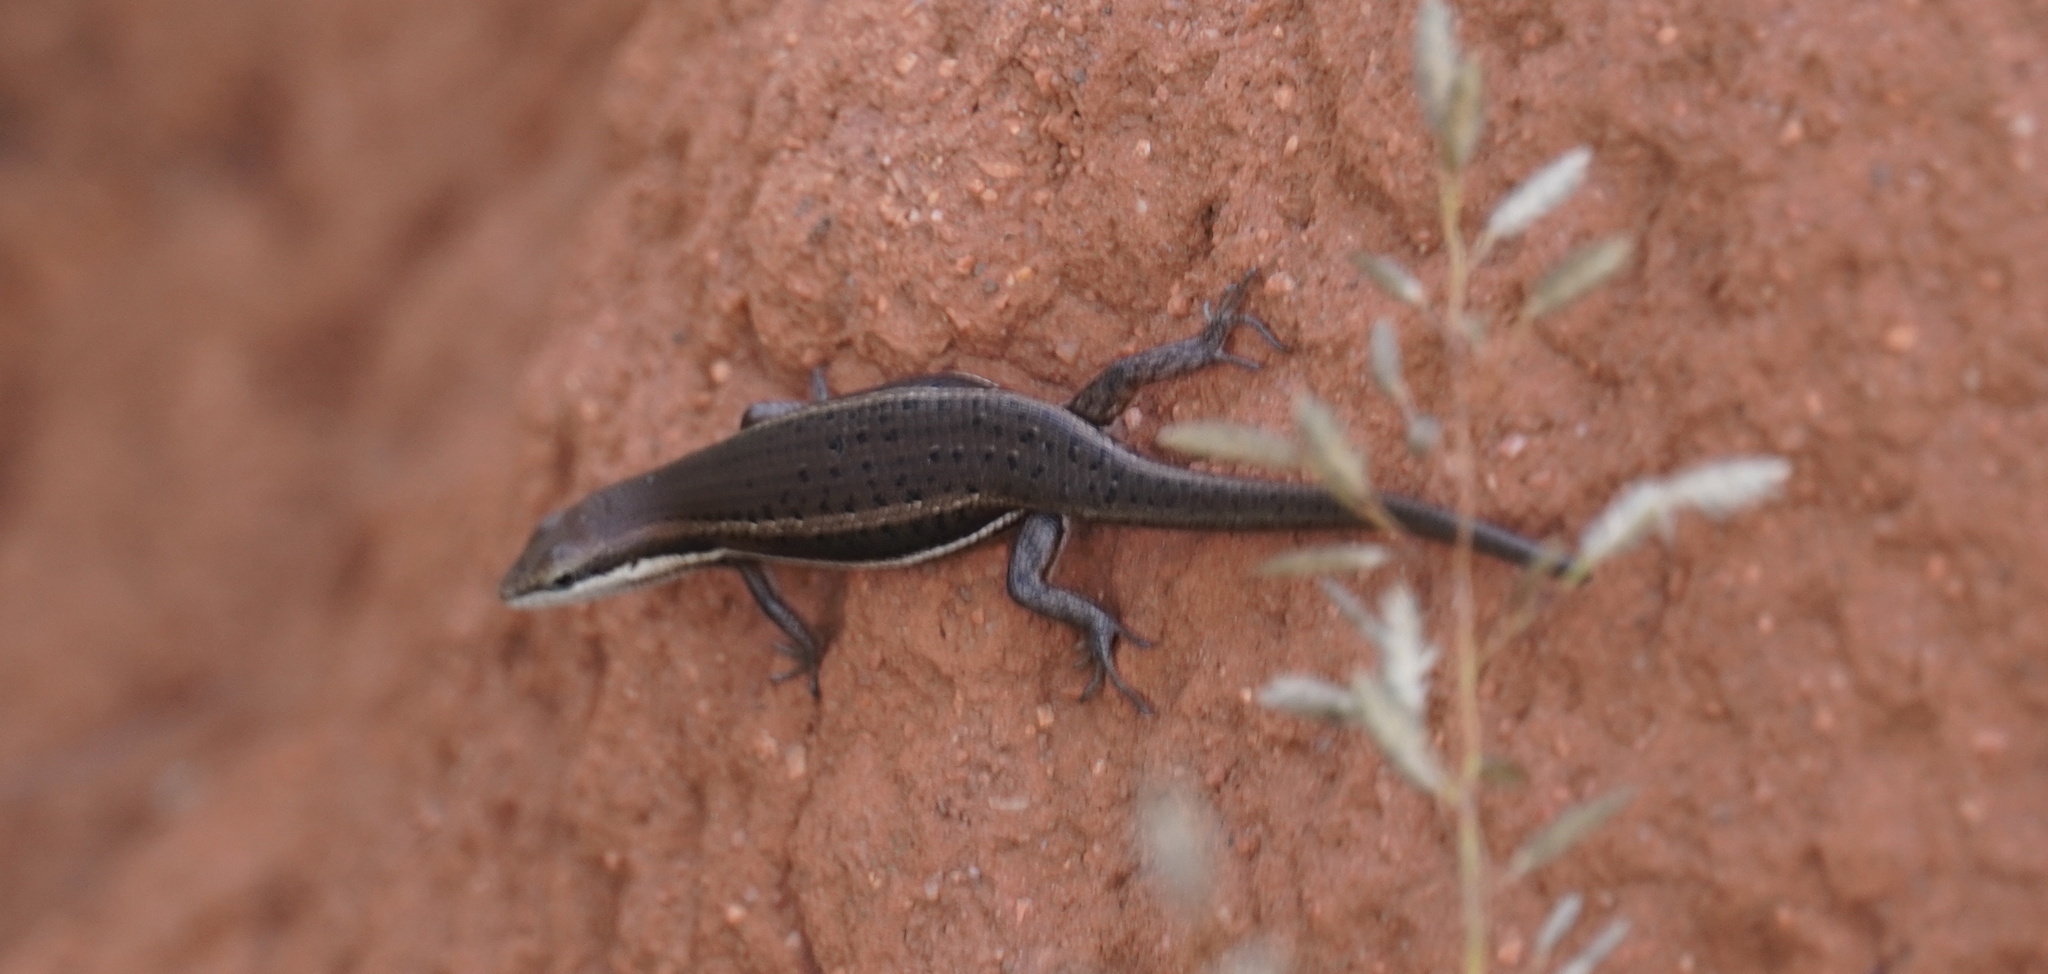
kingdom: Animalia
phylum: Chordata
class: Squamata
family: Scincidae
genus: Trachylepis
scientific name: Trachylepis varia
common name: Eastern variable skink
